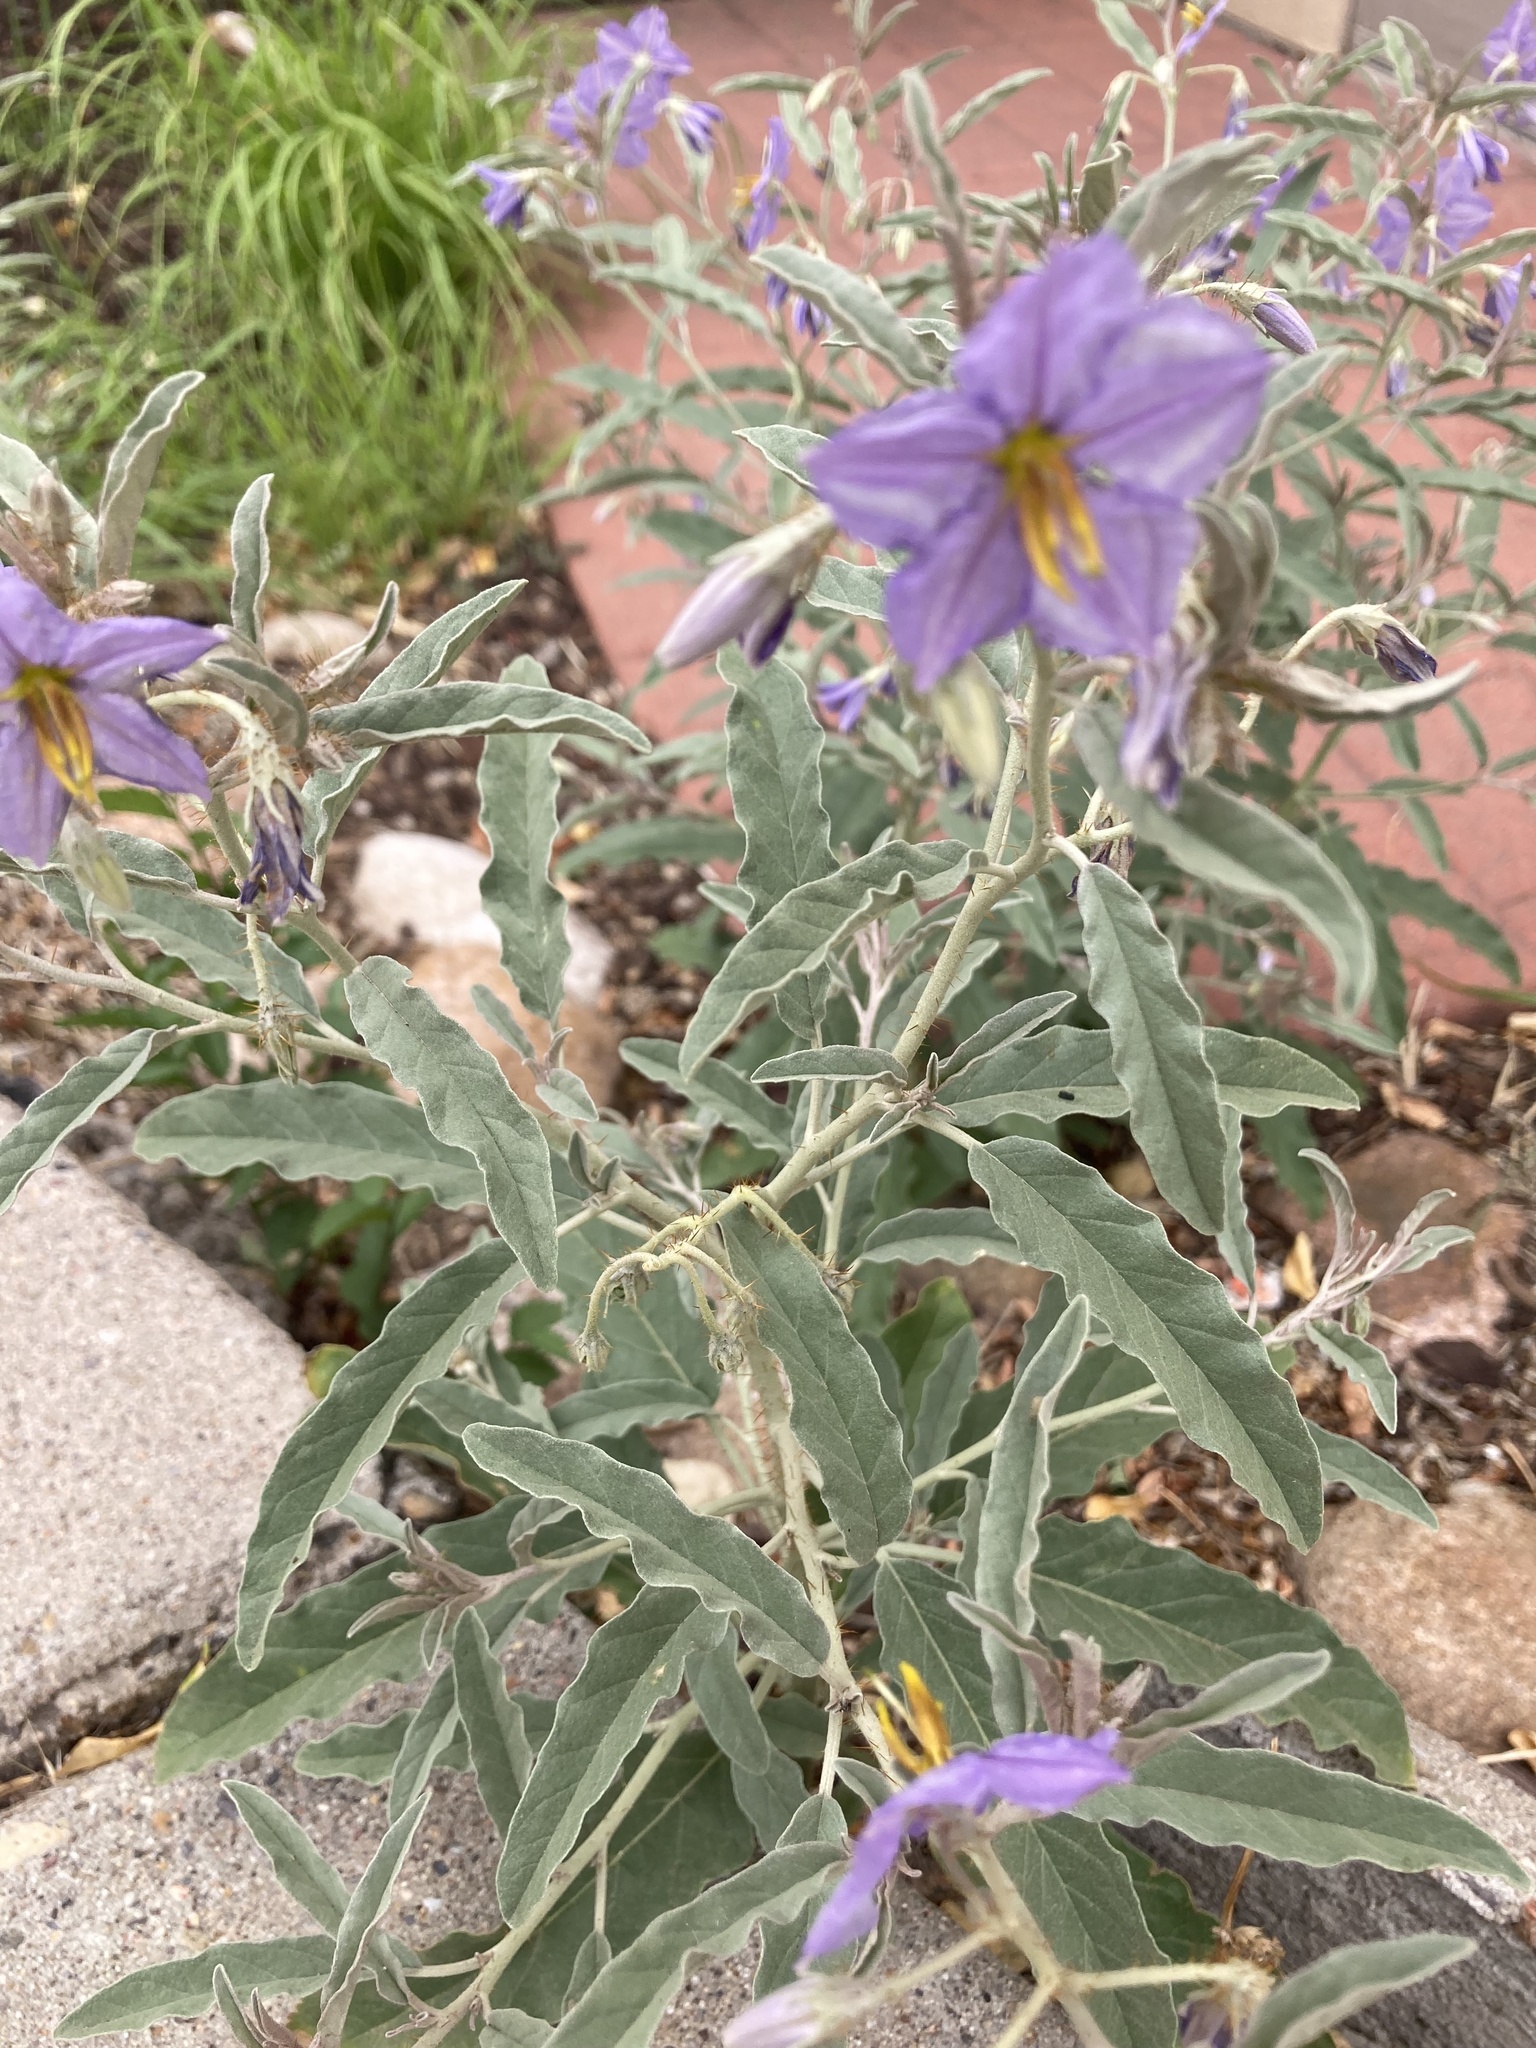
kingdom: Plantae
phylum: Tracheophyta
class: Magnoliopsida
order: Solanales
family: Solanaceae
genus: Solanum
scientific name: Solanum elaeagnifolium
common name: Silverleaf nightshade
